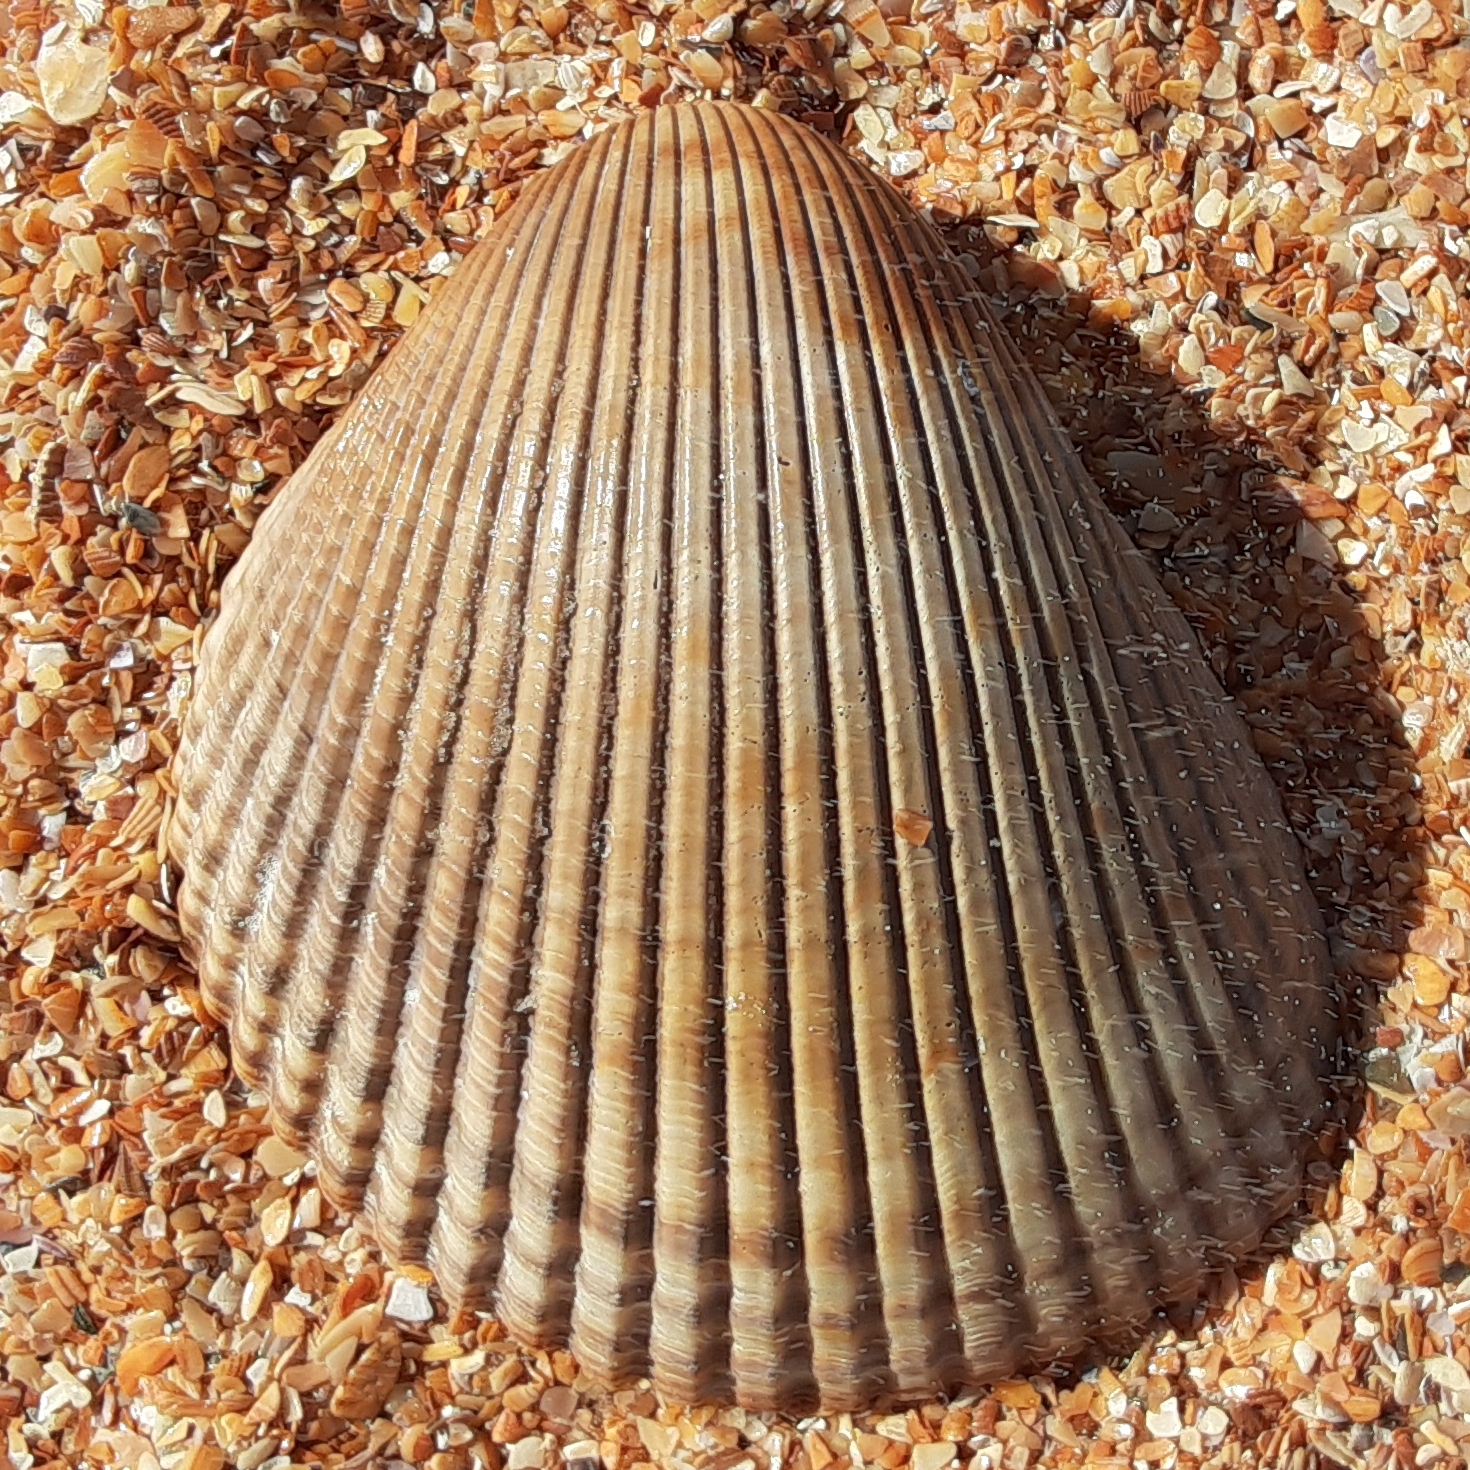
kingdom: Animalia
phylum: Mollusca
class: Bivalvia
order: Cardiida
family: Cardiidae
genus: Dinocardium
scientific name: Dinocardium robustum
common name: Atlantic giant cockle
